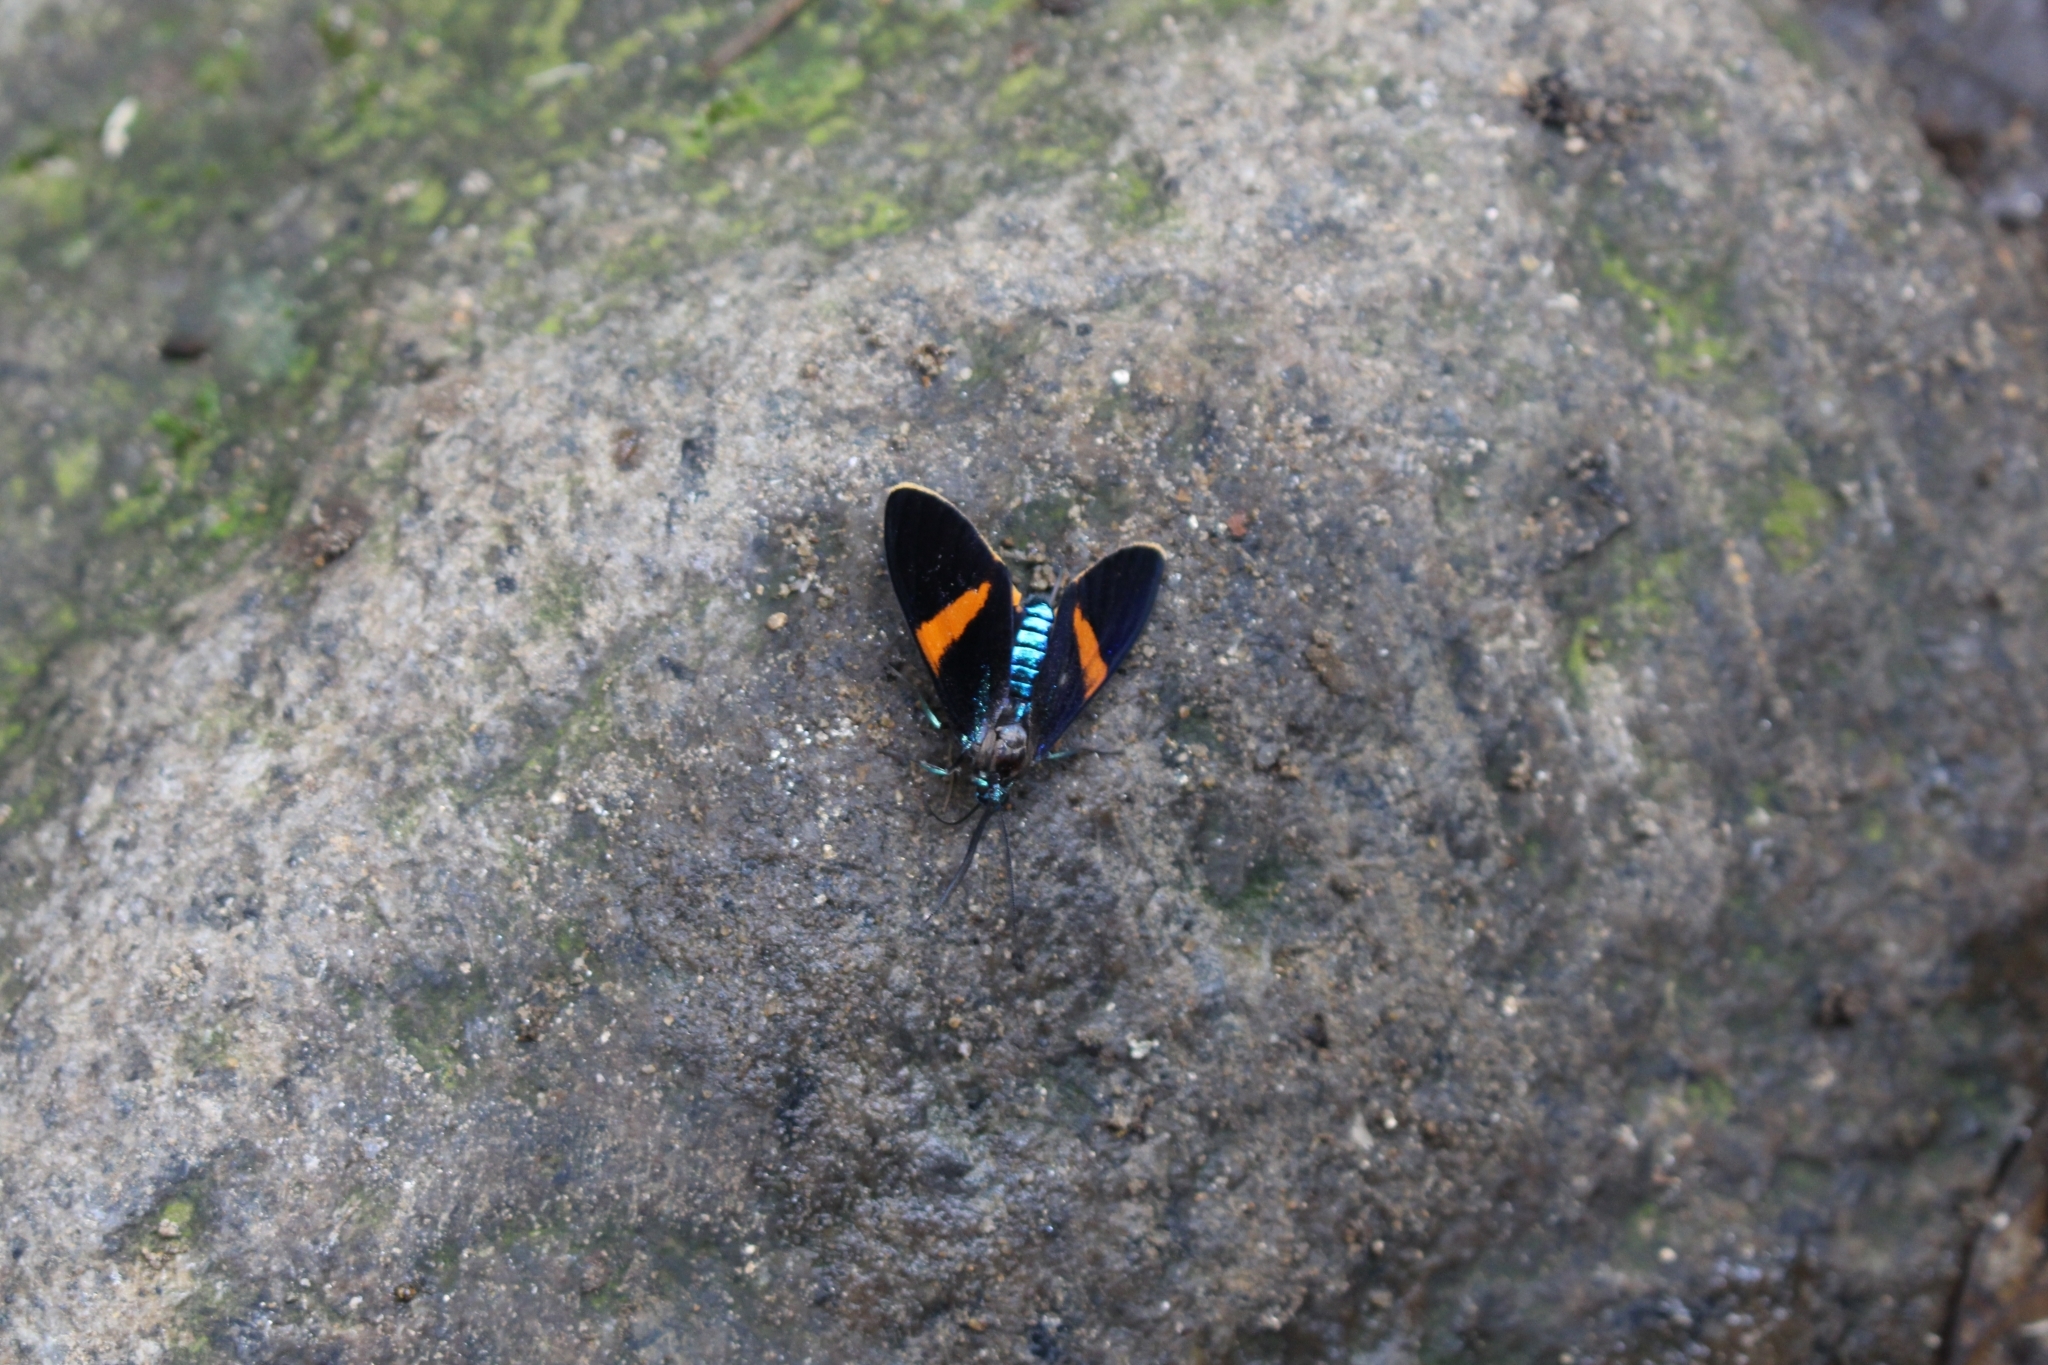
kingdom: Animalia
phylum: Arthropoda
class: Insecta
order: Lepidoptera
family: Erebidae
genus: Cyanopepla
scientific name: Cyanopepla panamensis
